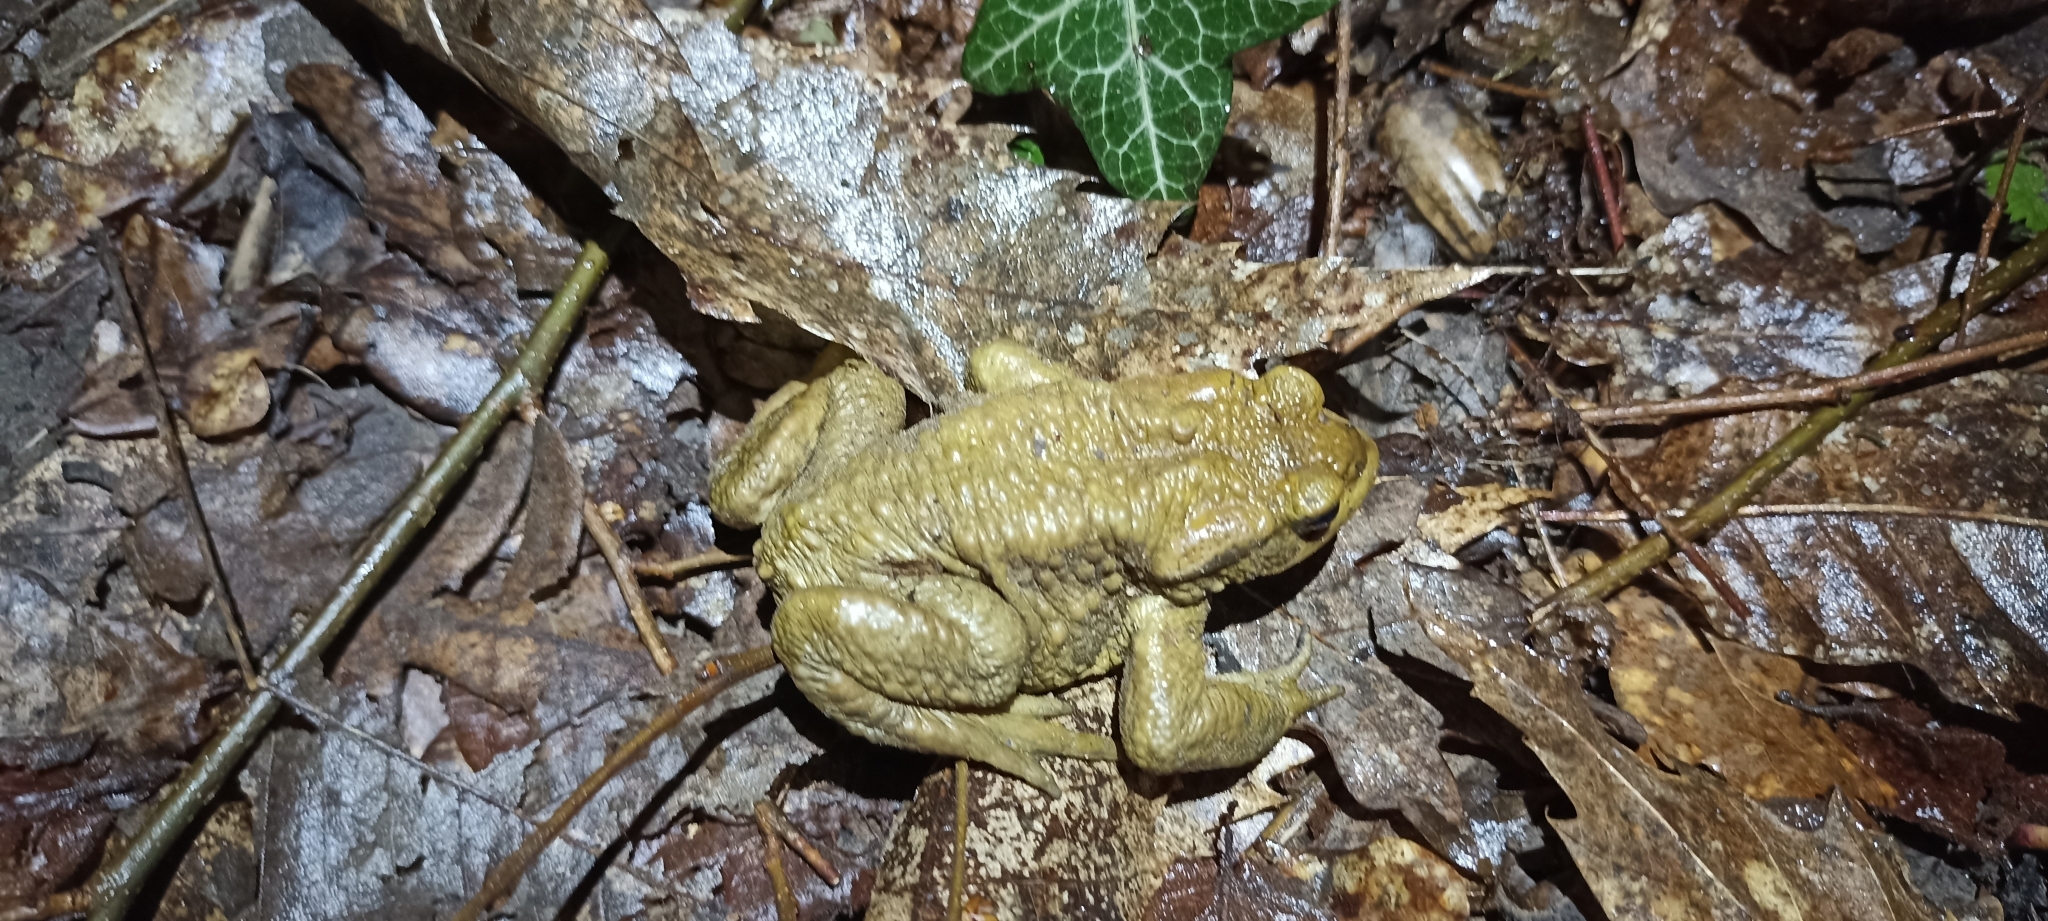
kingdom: Animalia
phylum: Chordata
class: Amphibia
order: Anura
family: Bufonidae
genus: Bufo
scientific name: Bufo spinosus
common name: Western common toad
